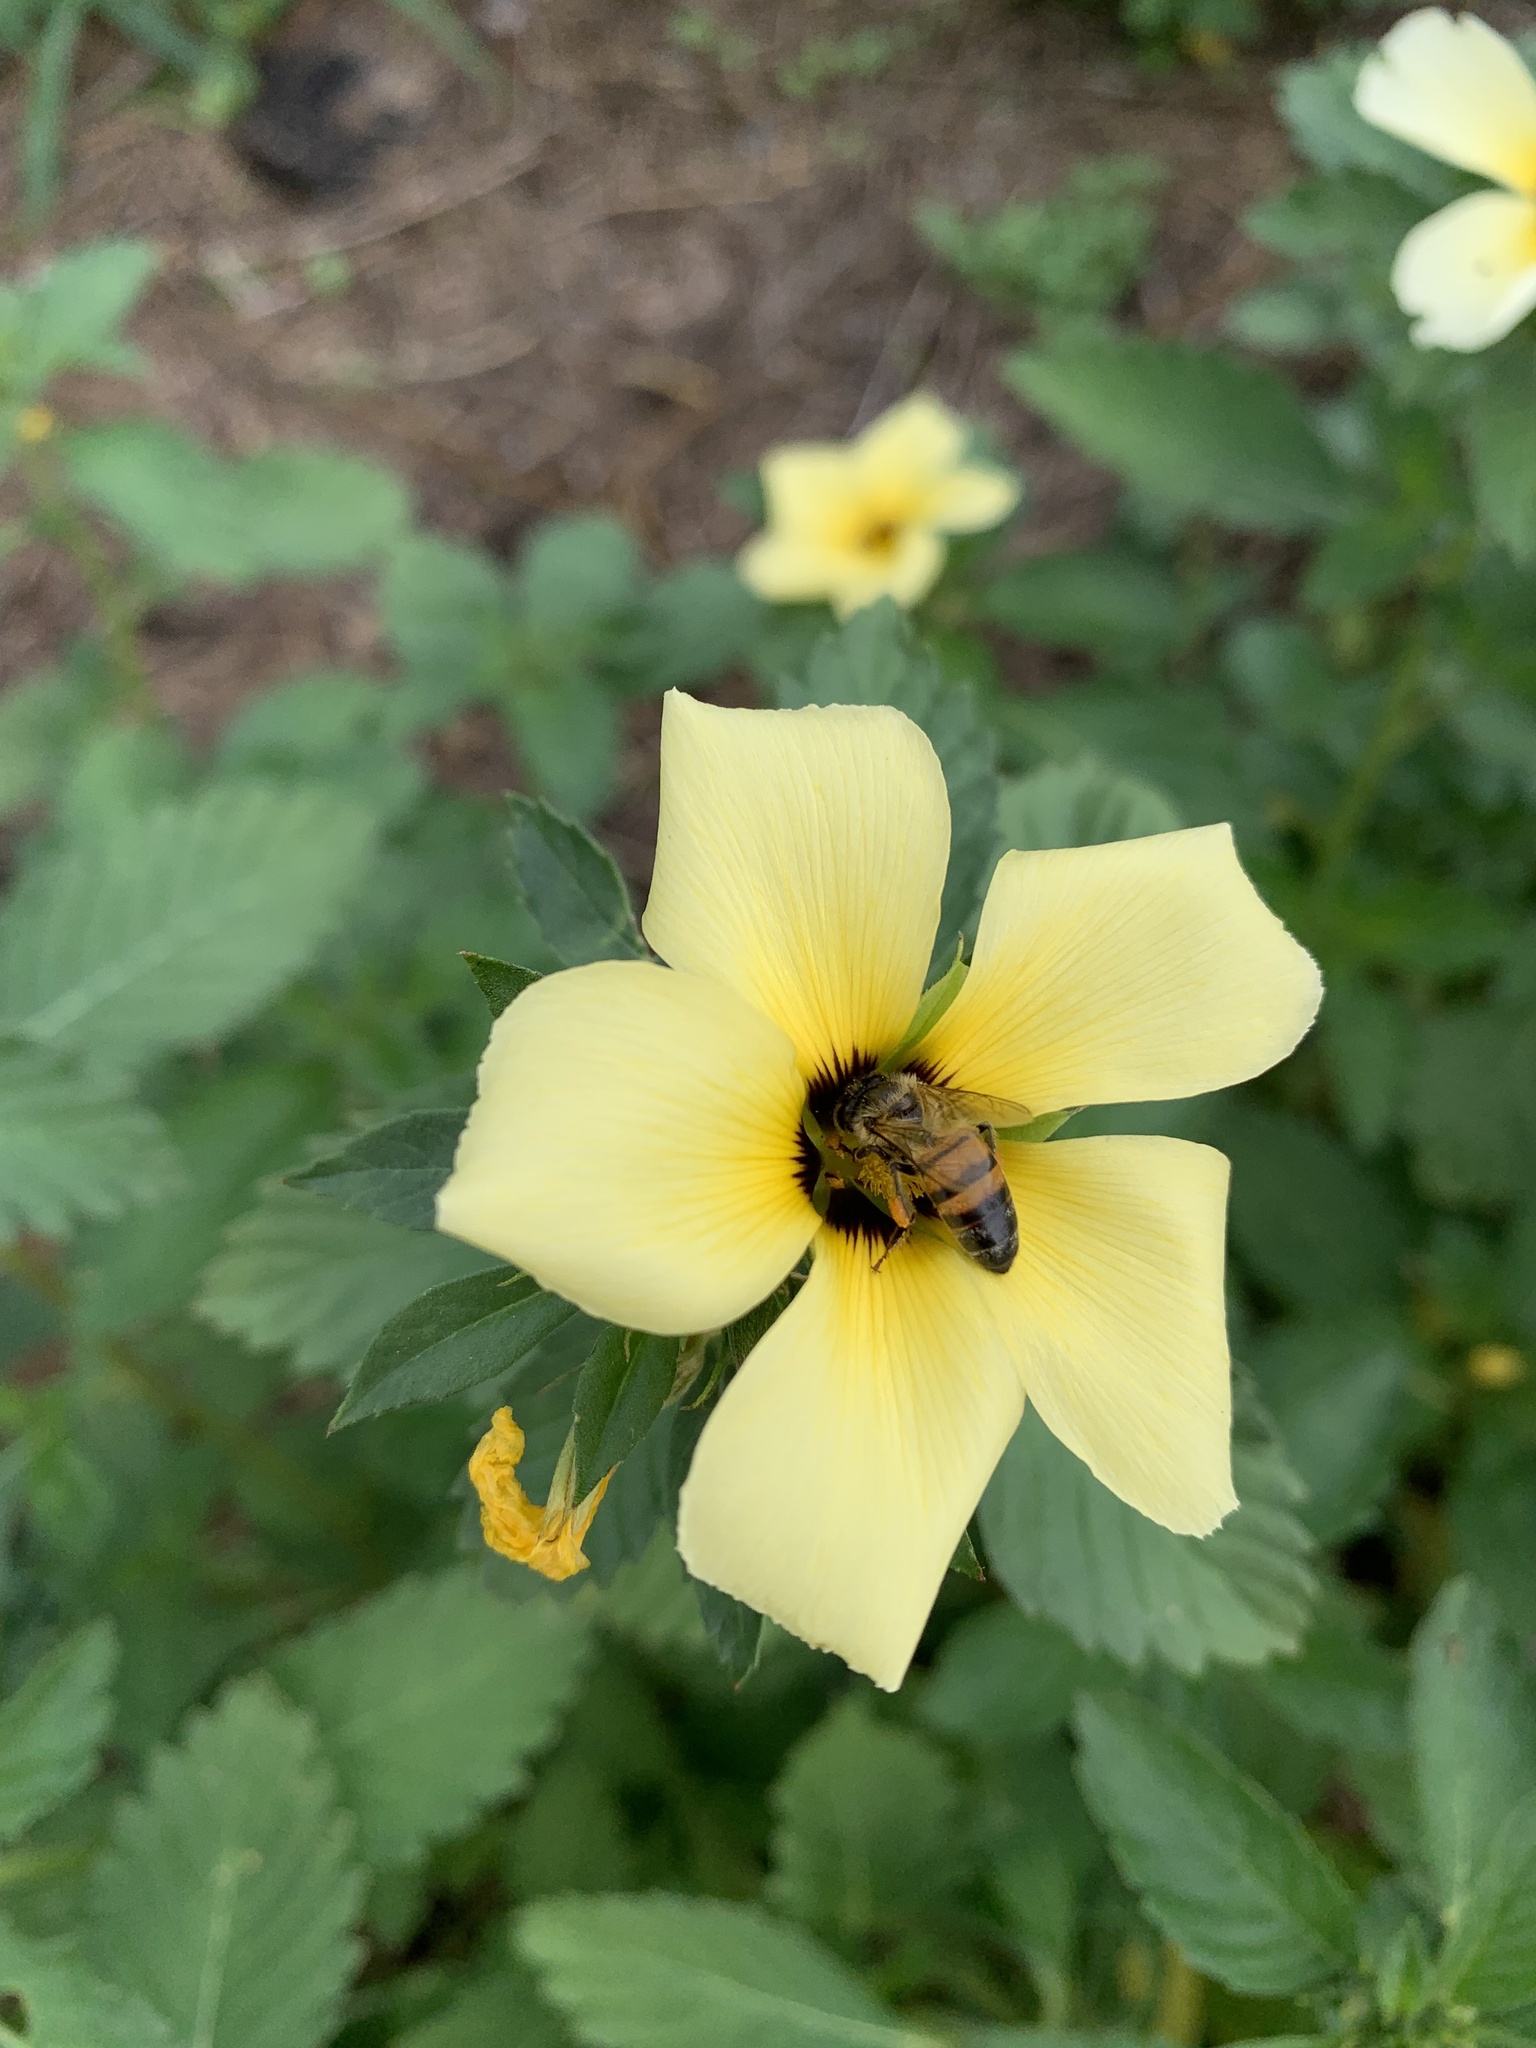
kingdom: Animalia
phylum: Arthropoda
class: Insecta
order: Hymenoptera
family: Apidae
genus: Apis
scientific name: Apis mellifera
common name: Honey bee
